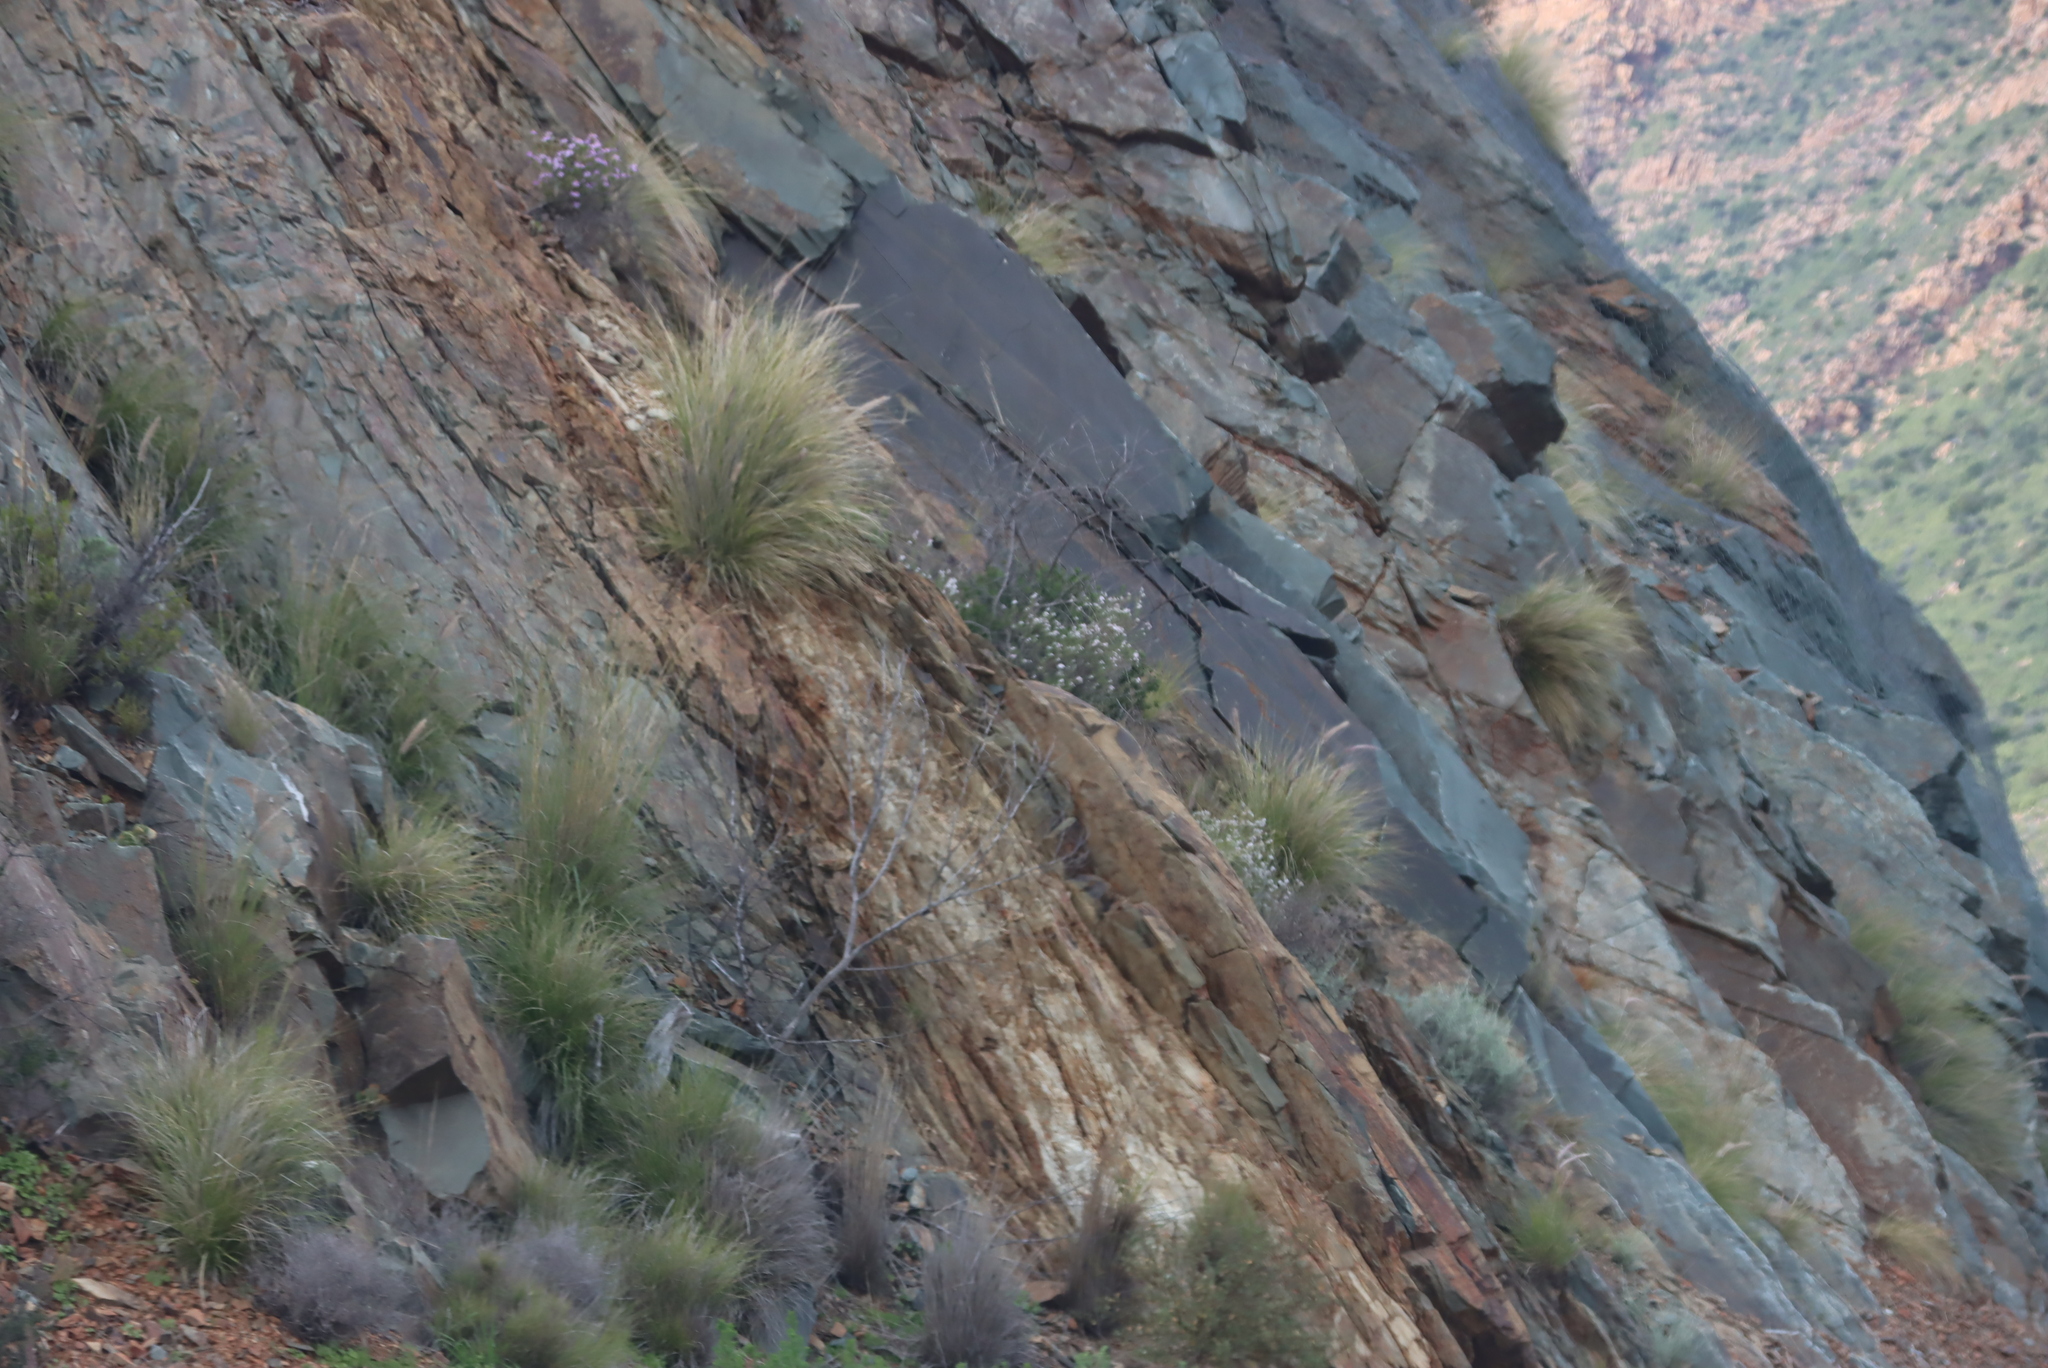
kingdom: Plantae
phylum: Tracheophyta
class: Liliopsida
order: Poales
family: Poaceae
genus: Cenchrus
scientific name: Cenchrus setaceus
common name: Crimson fountaingrass
